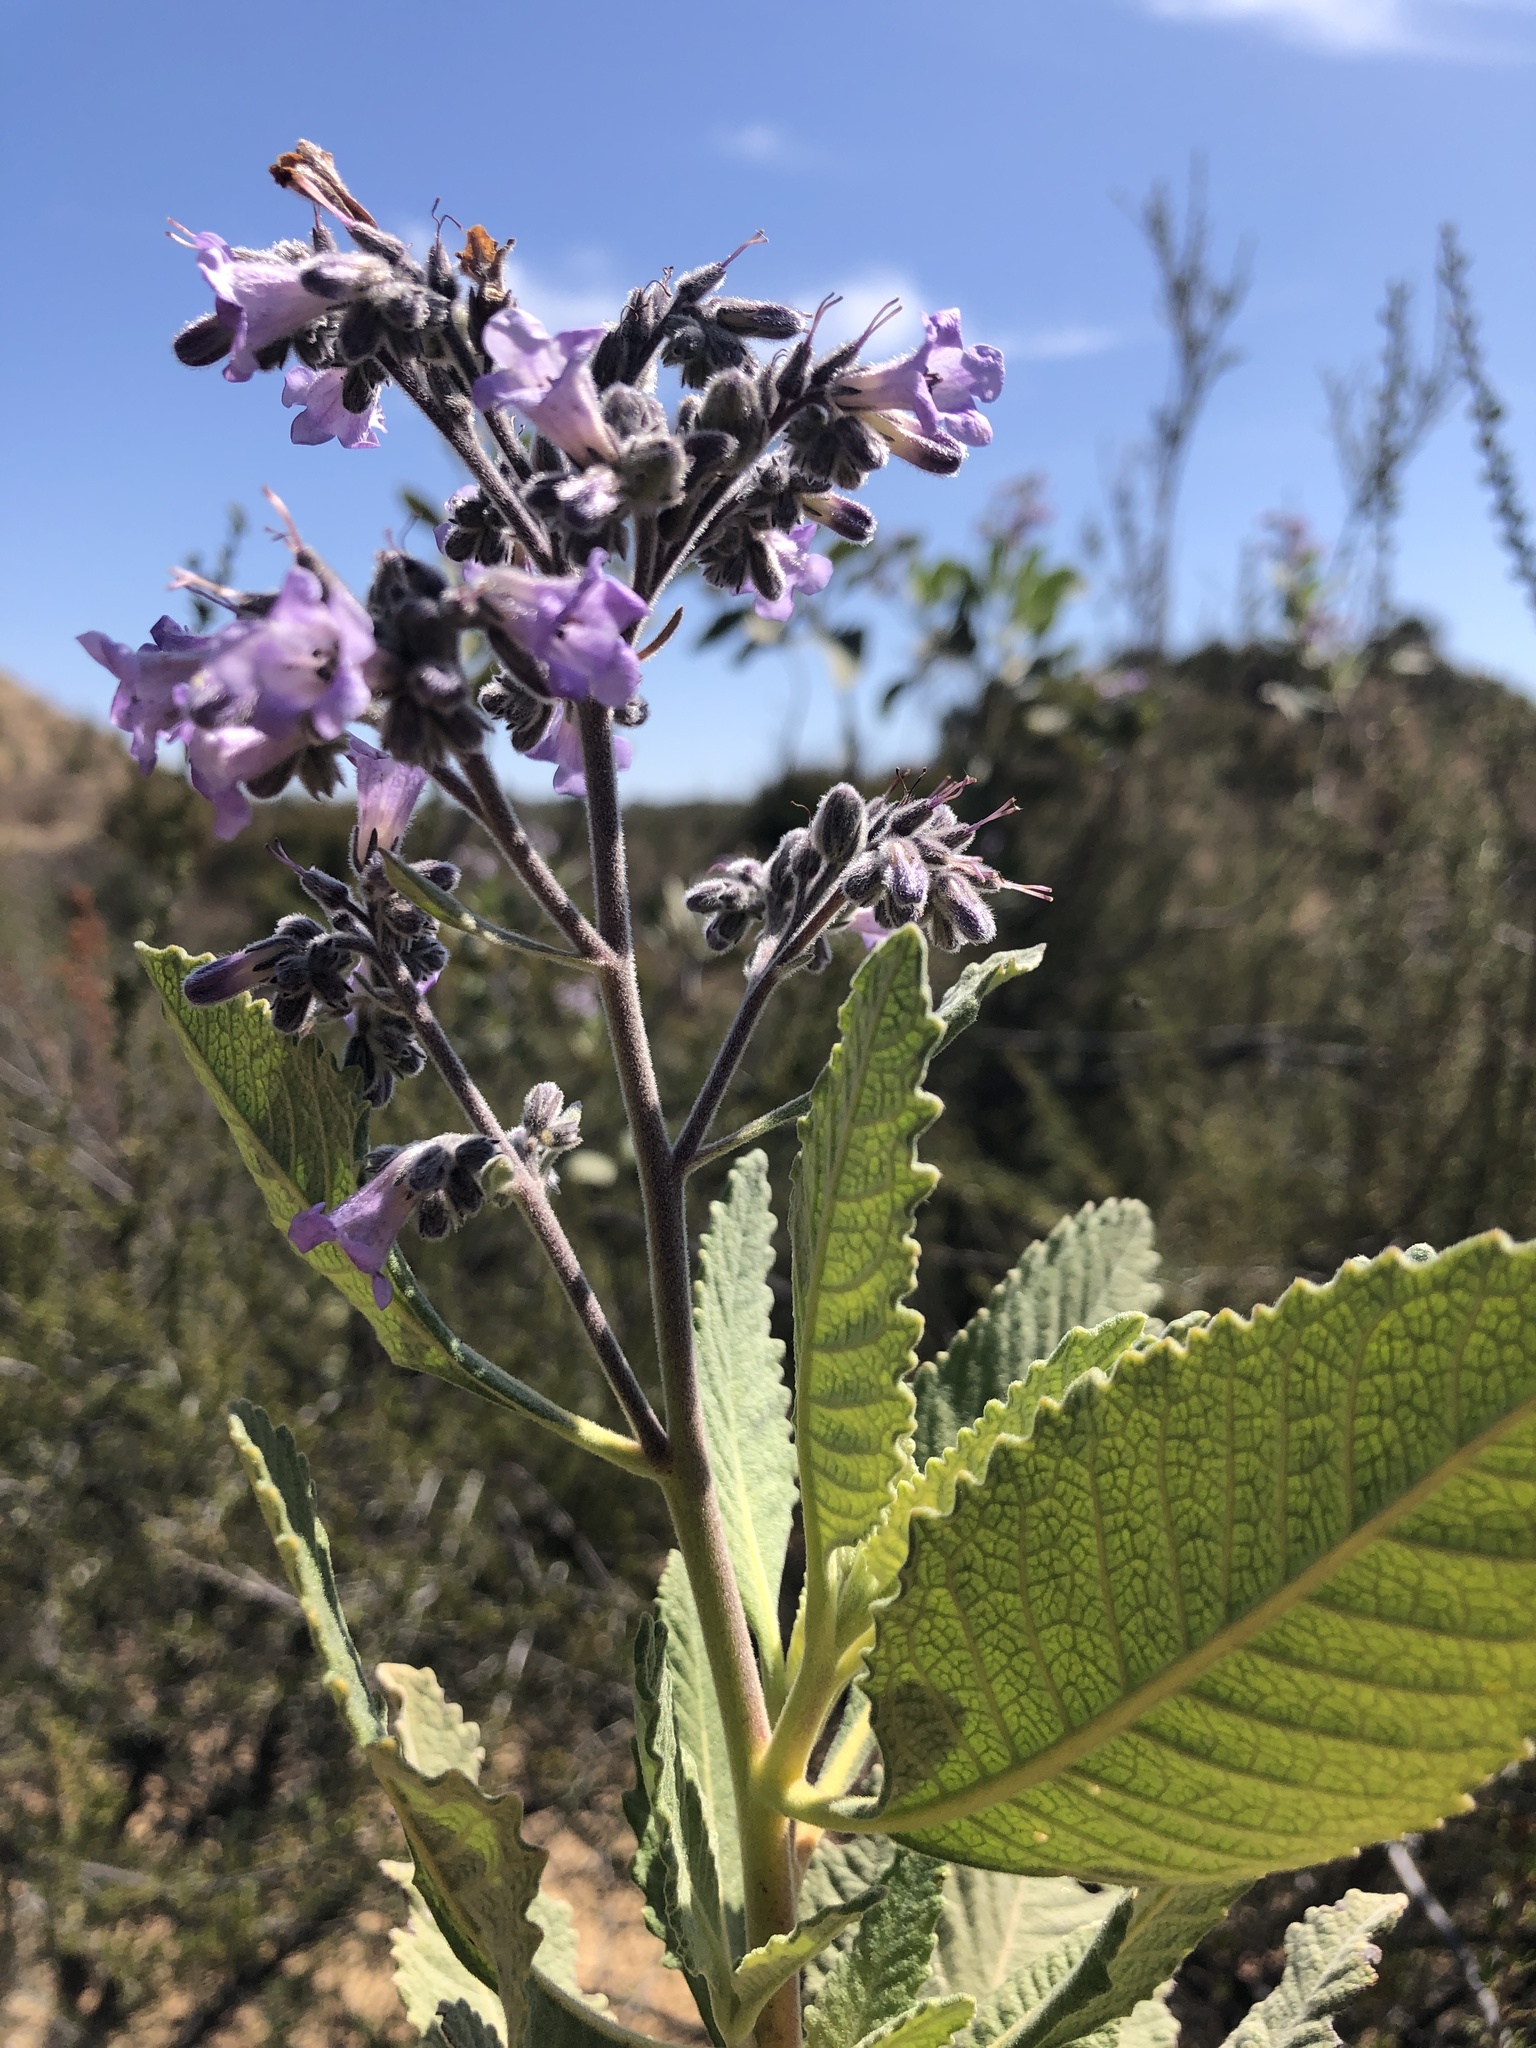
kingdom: Plantae
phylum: Tracheophyta
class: Magnoliopsida
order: Boraginales
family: Namaceae
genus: Eriodictyon
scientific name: Eriodictyon crassifolium
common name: Thick-leaf yerba-santa
